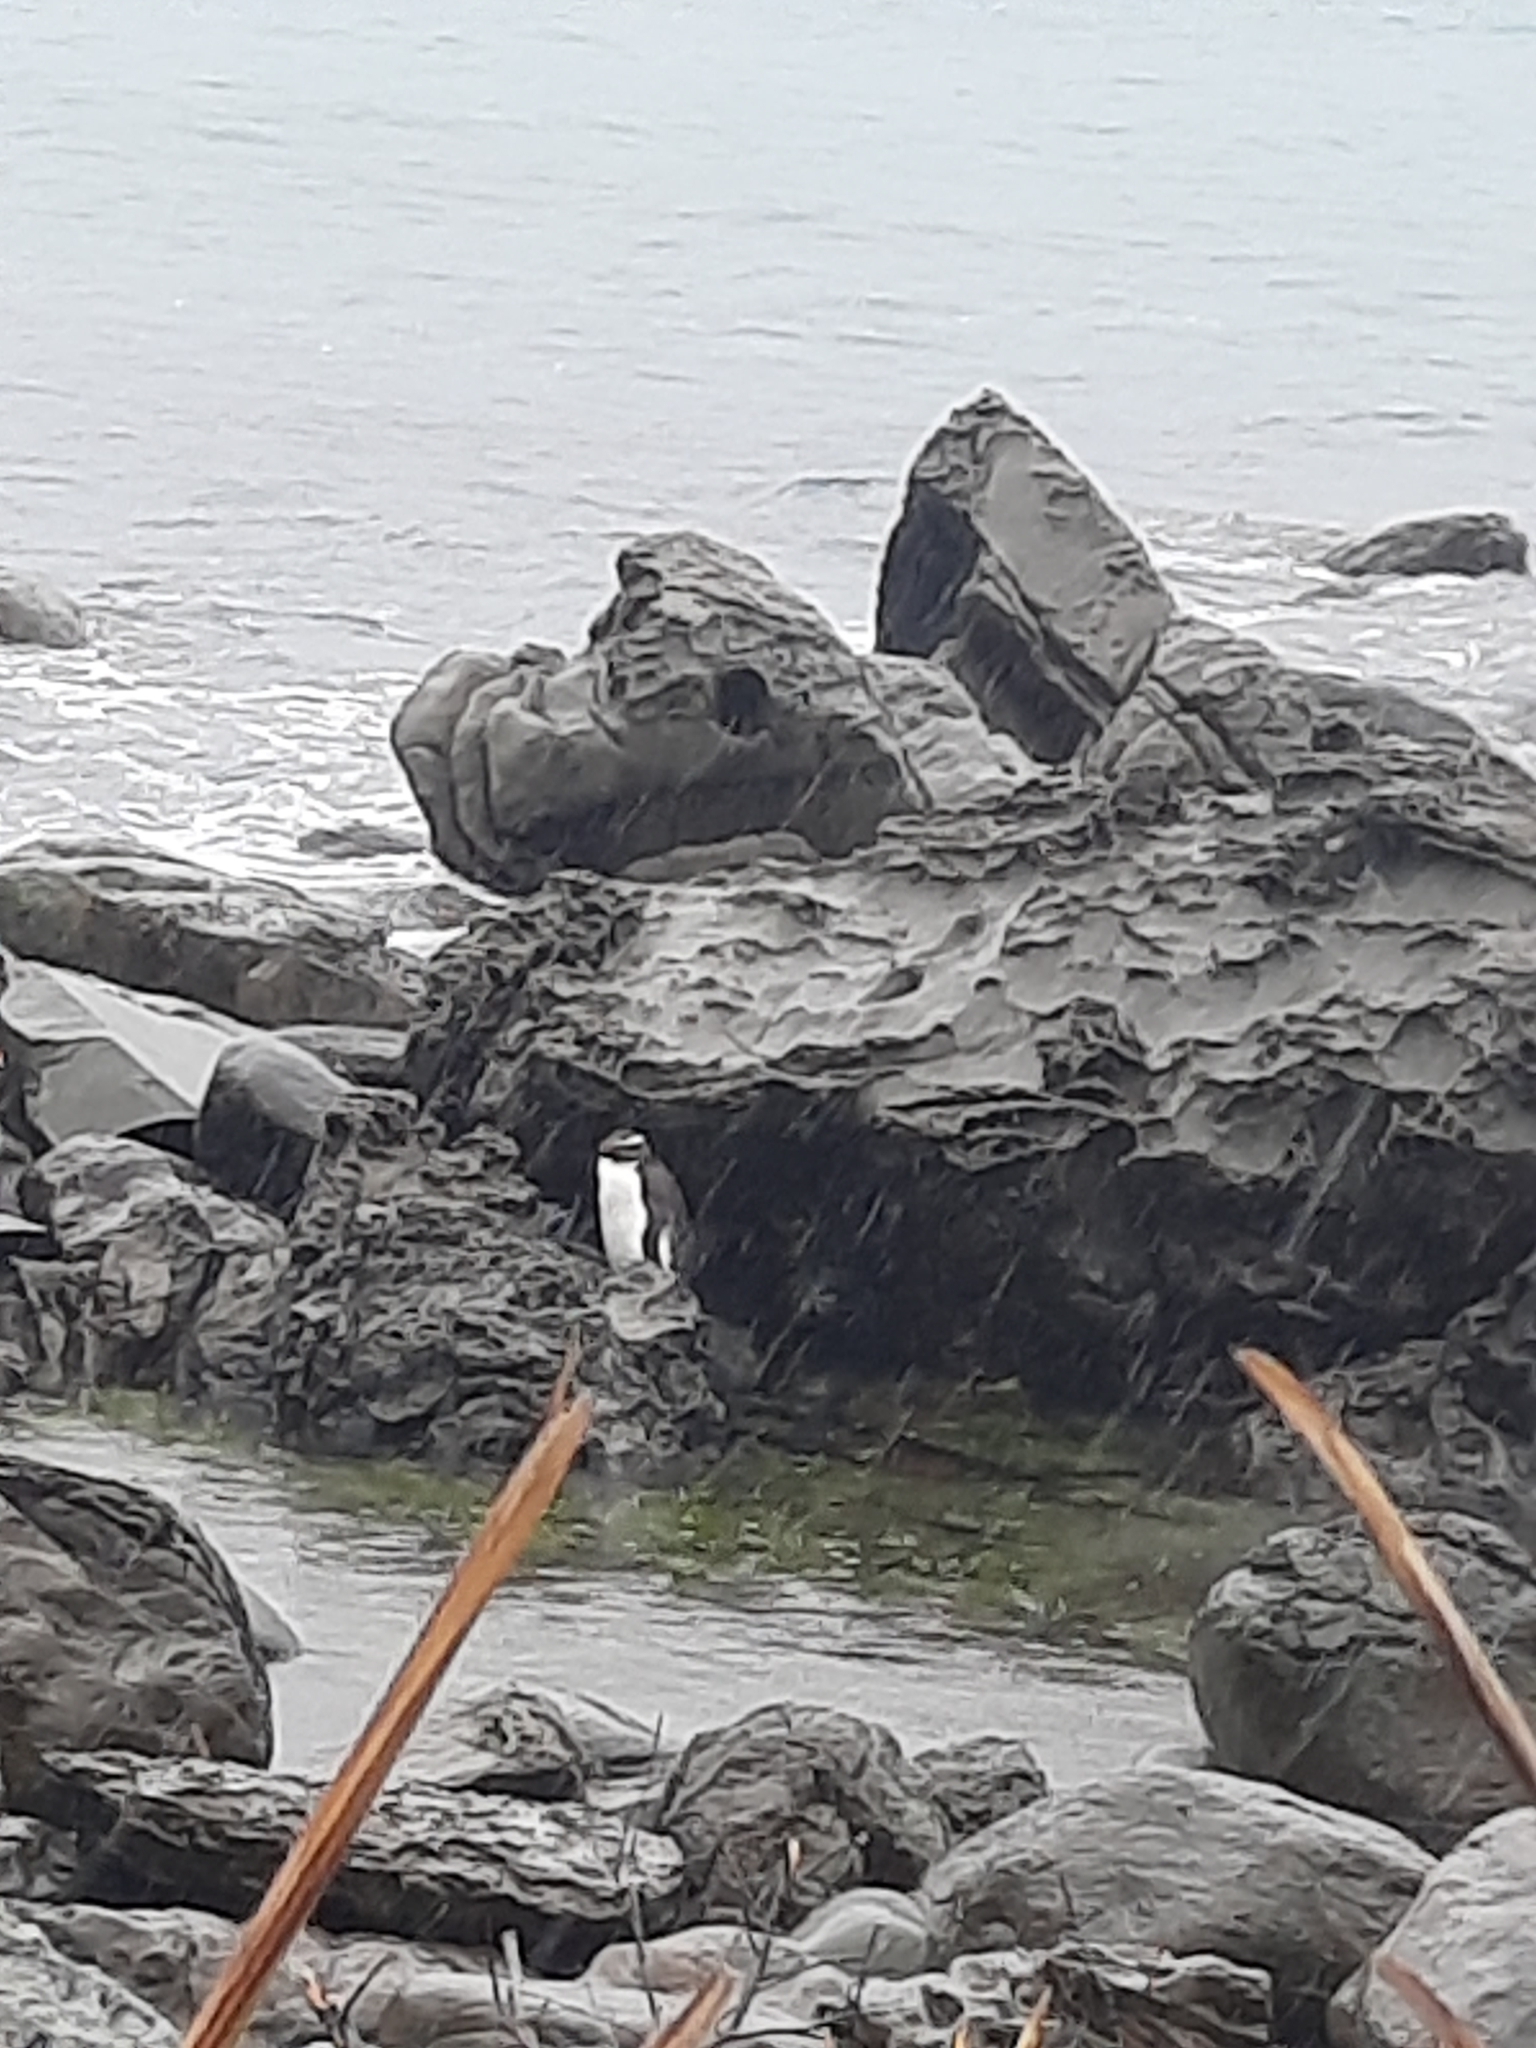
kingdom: Animalia
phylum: Chordata
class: Aves
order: Sphenisciformes
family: Spheniscidae
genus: Eudyptes
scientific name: Eudyptes pachyrhynchus
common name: Fiordland penguin
